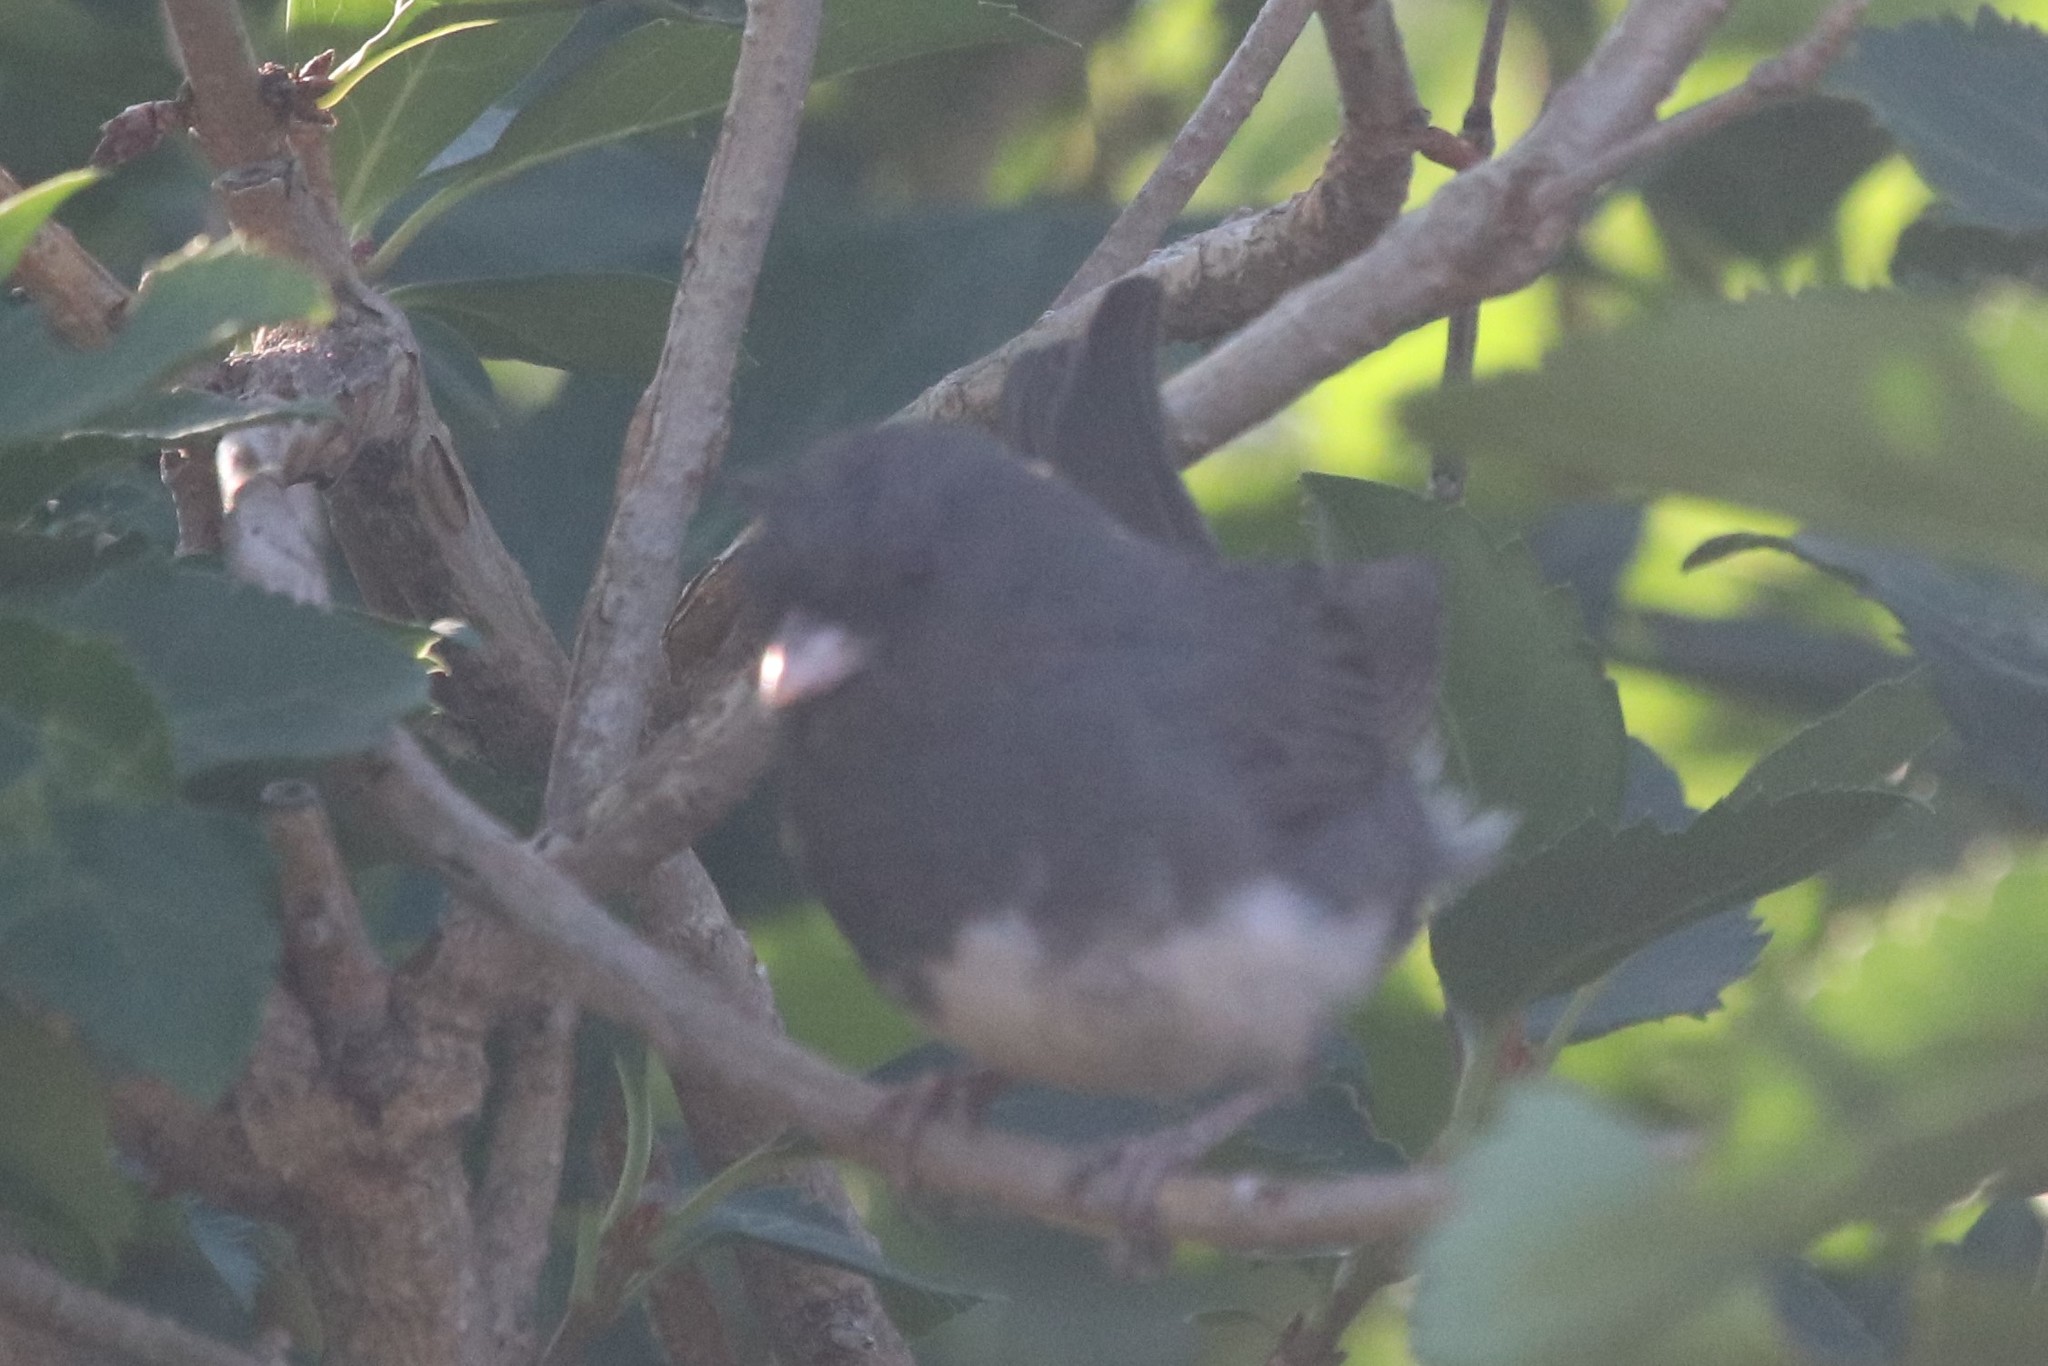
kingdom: Animalia
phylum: Chordata
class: Aves
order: Passeriformes
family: Passerellidae
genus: Junco
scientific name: Junco hyemalis
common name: Dark-eyed junco
